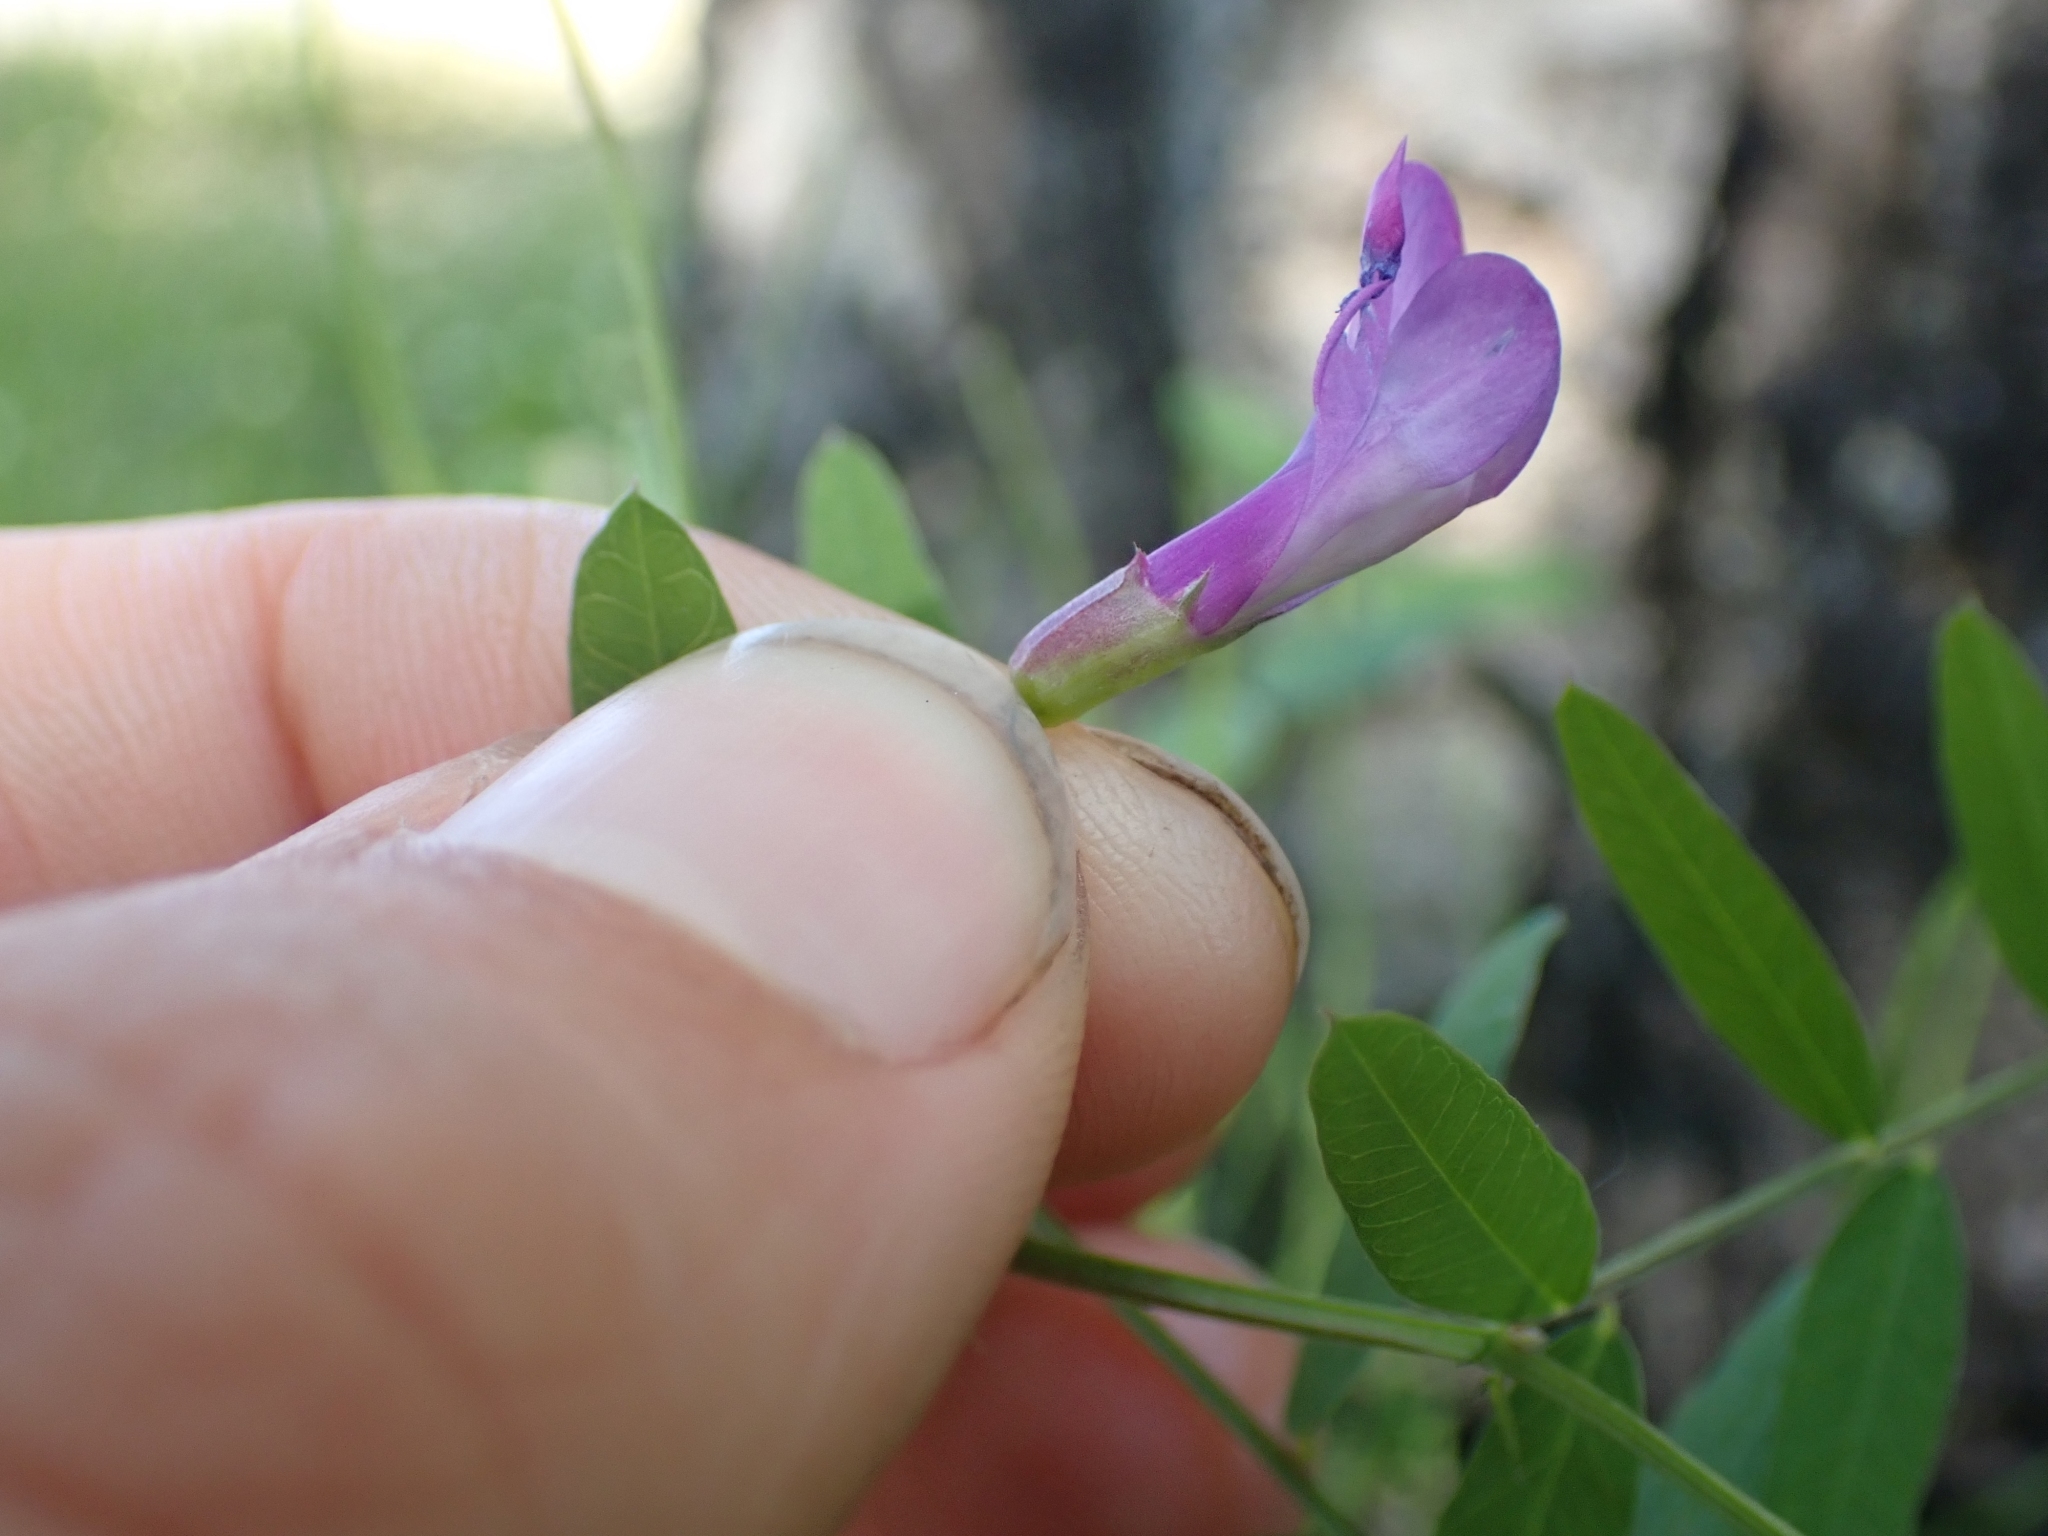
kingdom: Plantae
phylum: Tracheophyta
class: Magnoliopsida
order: Fabales
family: Fabaceae
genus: Vicia
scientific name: Vicia americana
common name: American vetch
